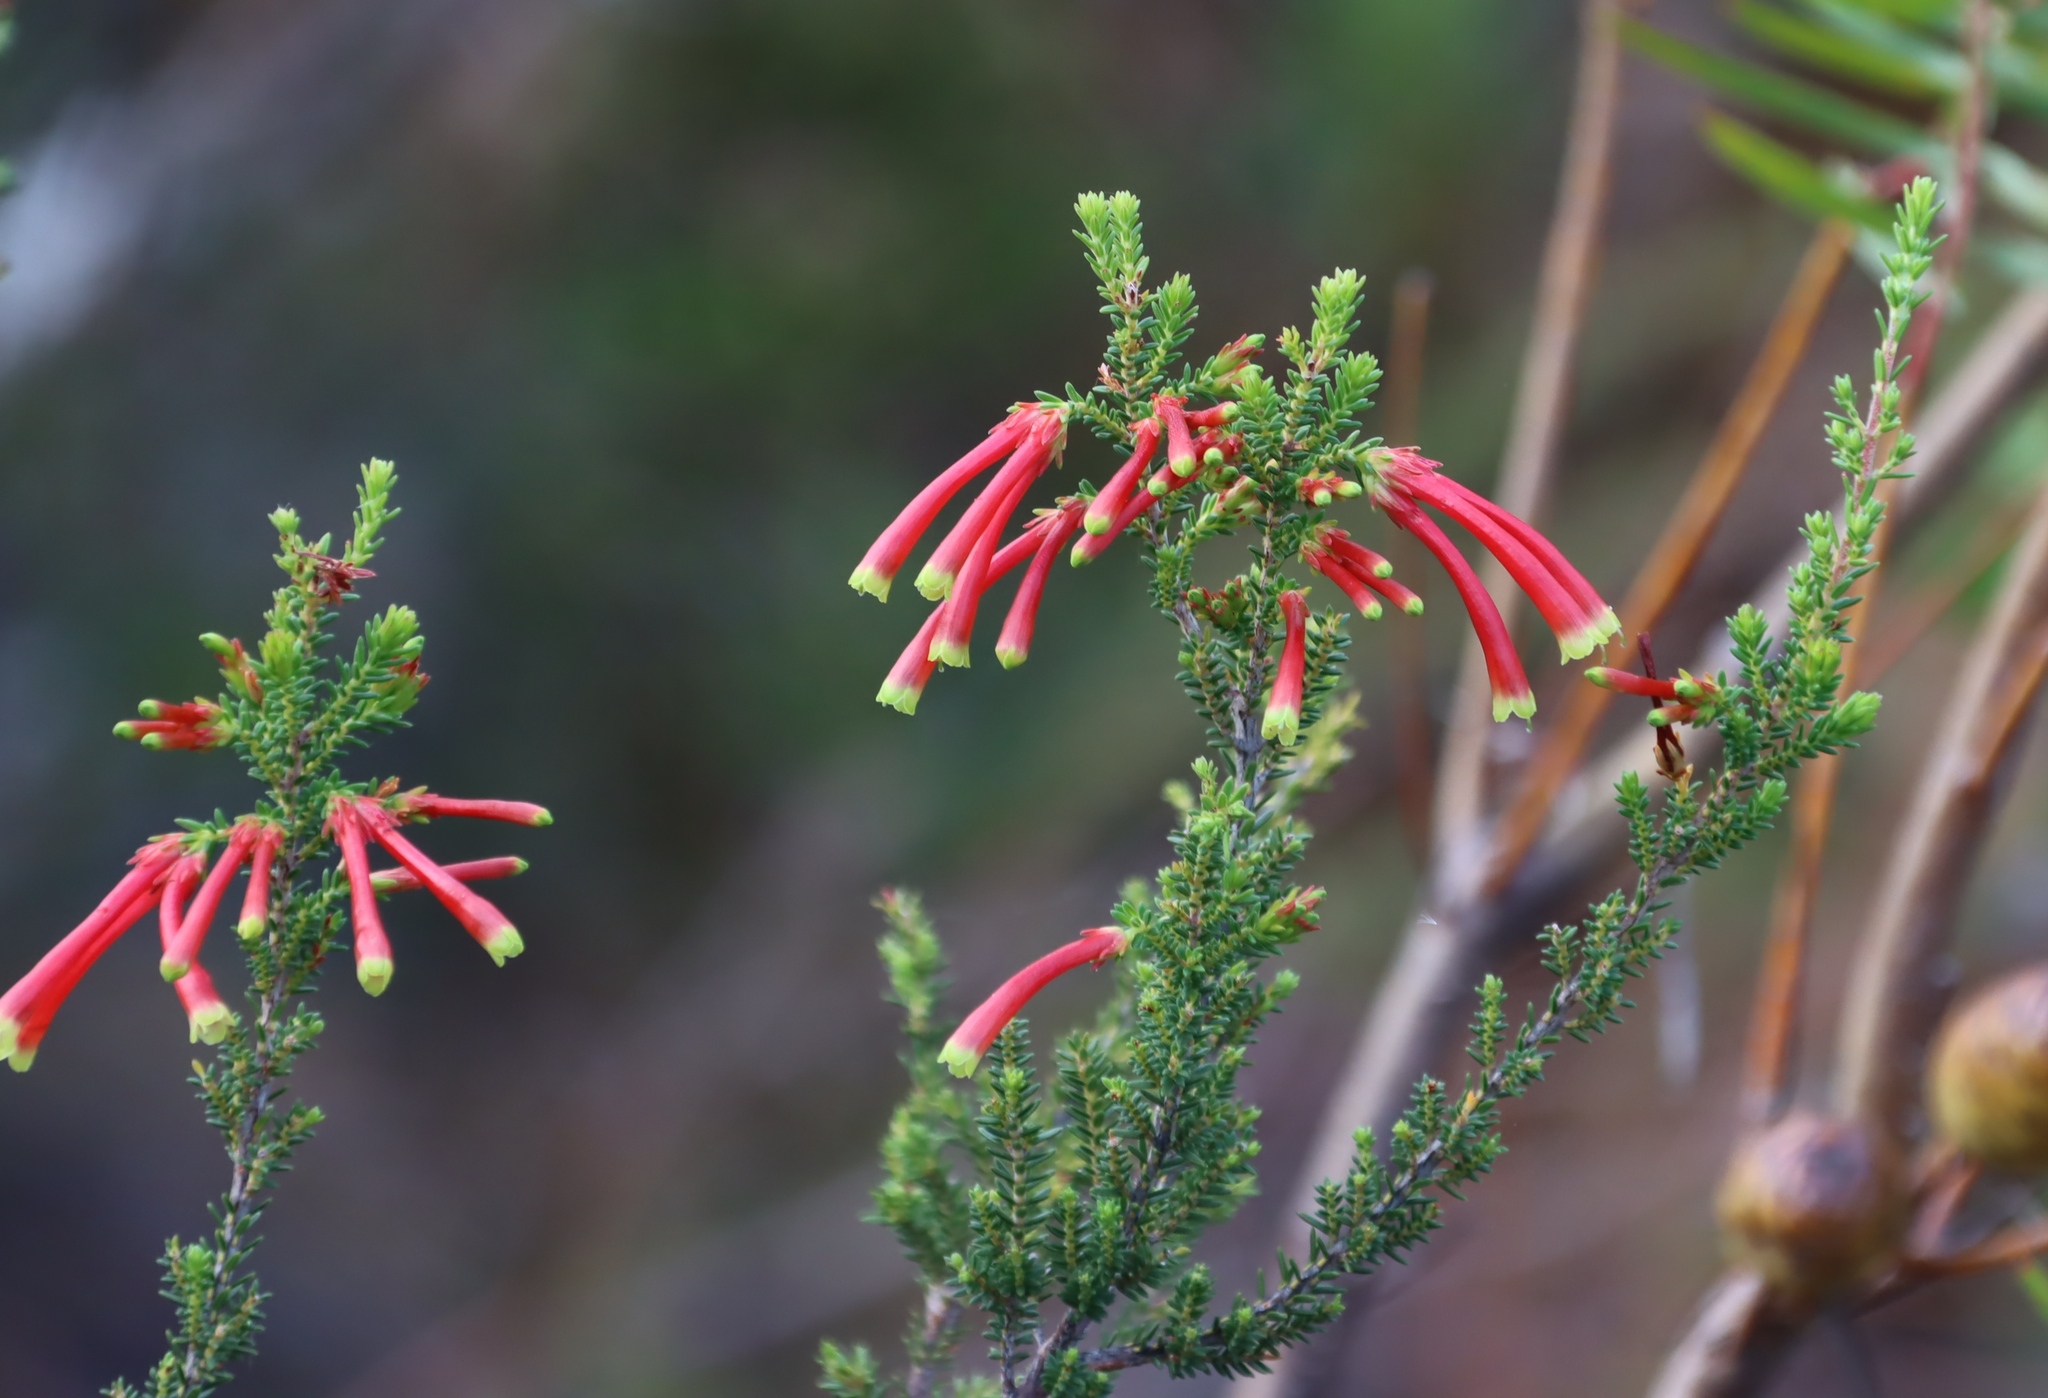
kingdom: Plantae
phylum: Tracheophyta
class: Magnoliopsida
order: Ericales
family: Ericaceae
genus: Erica
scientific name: Erica discolor
